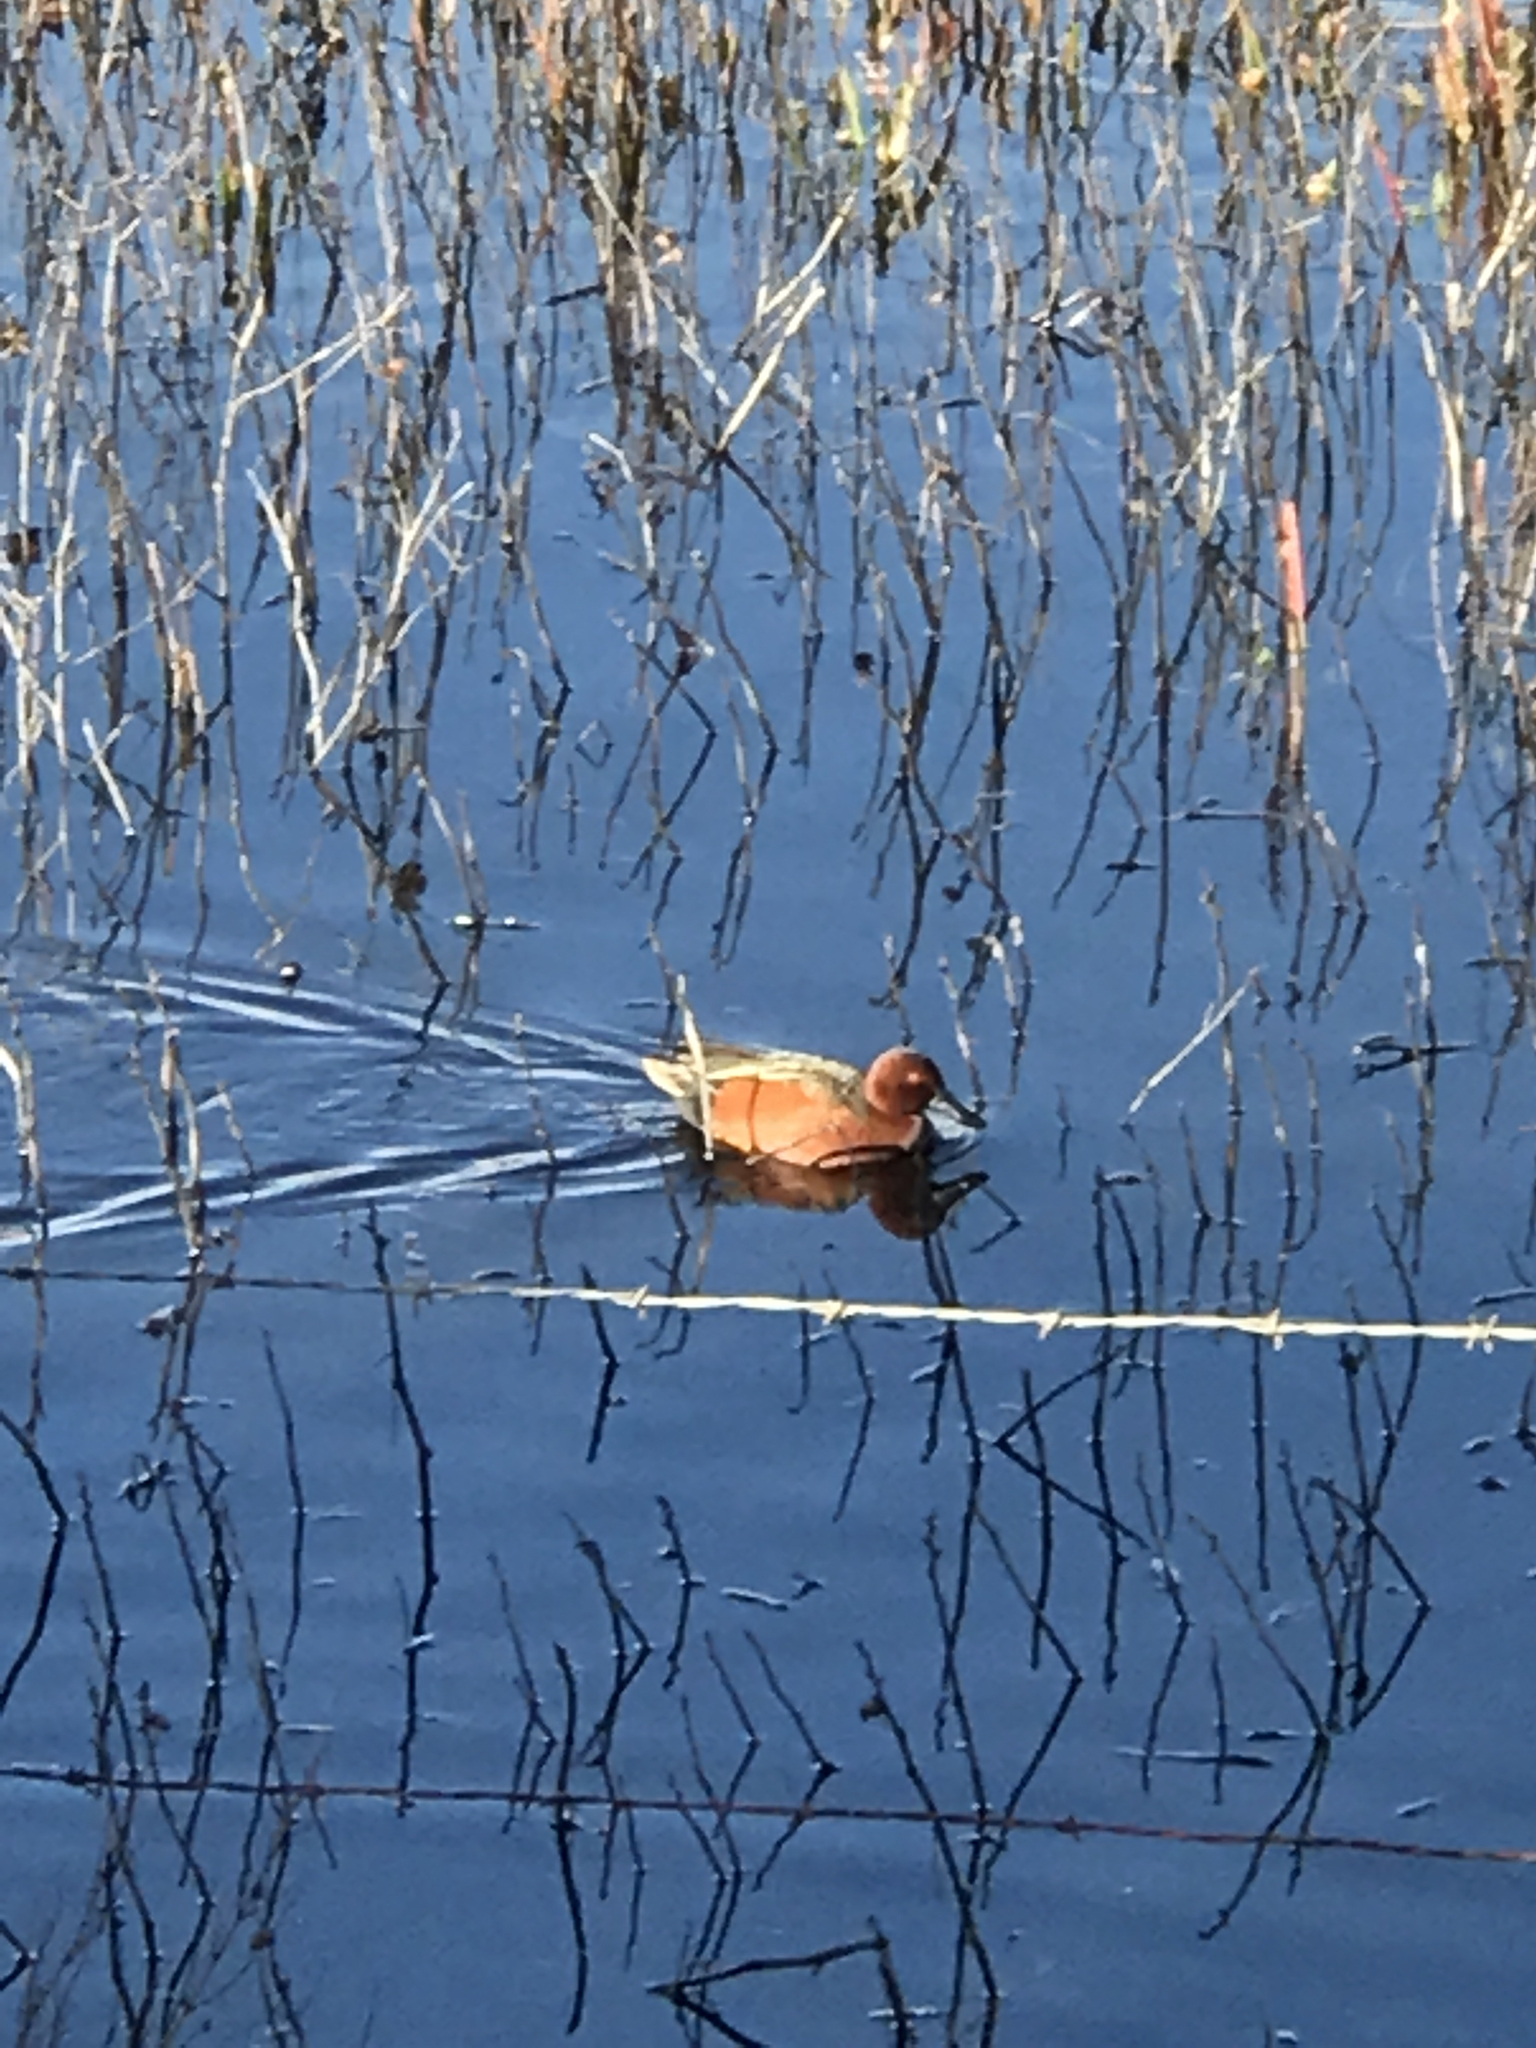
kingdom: Animalia
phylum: Chordata
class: Aves
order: Anseriformes
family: Anatidae
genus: Spatula
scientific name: Spatula cyanoptera
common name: Cinnamon teal
